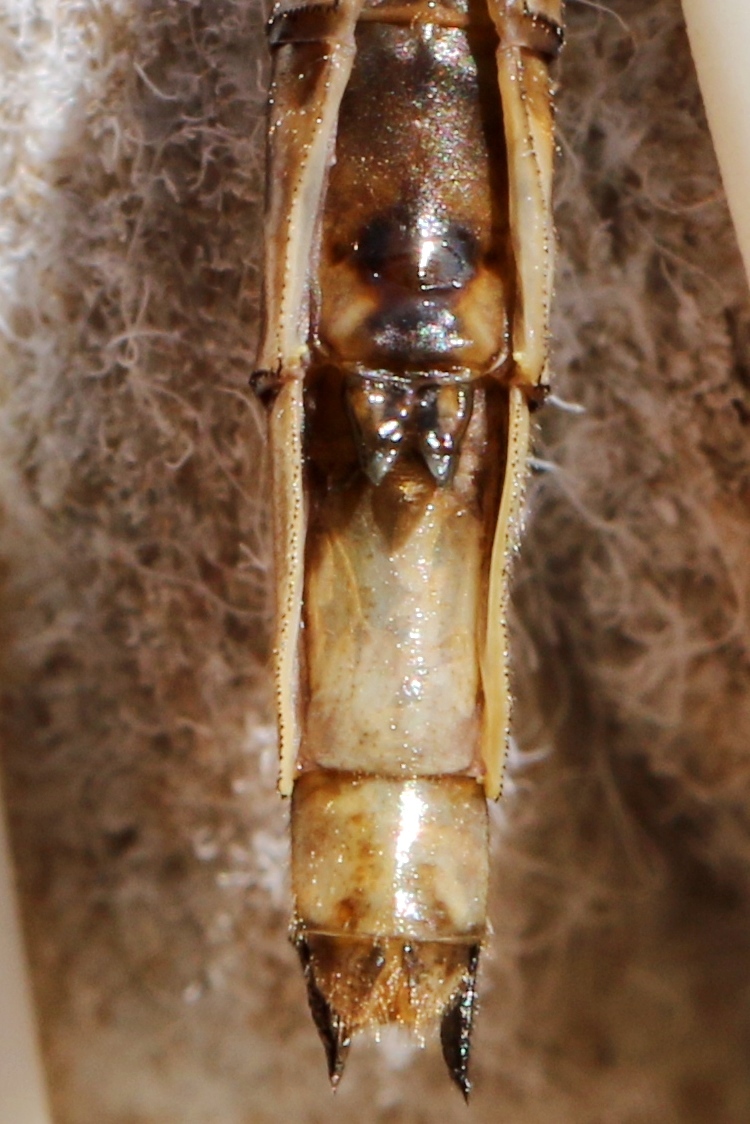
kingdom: Animalia
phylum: Arthropoda
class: Insecta
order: Odonata
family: Gomphidae
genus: Phanogomphus
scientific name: Phanogomphus spicatus
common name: Dusky clubtail
